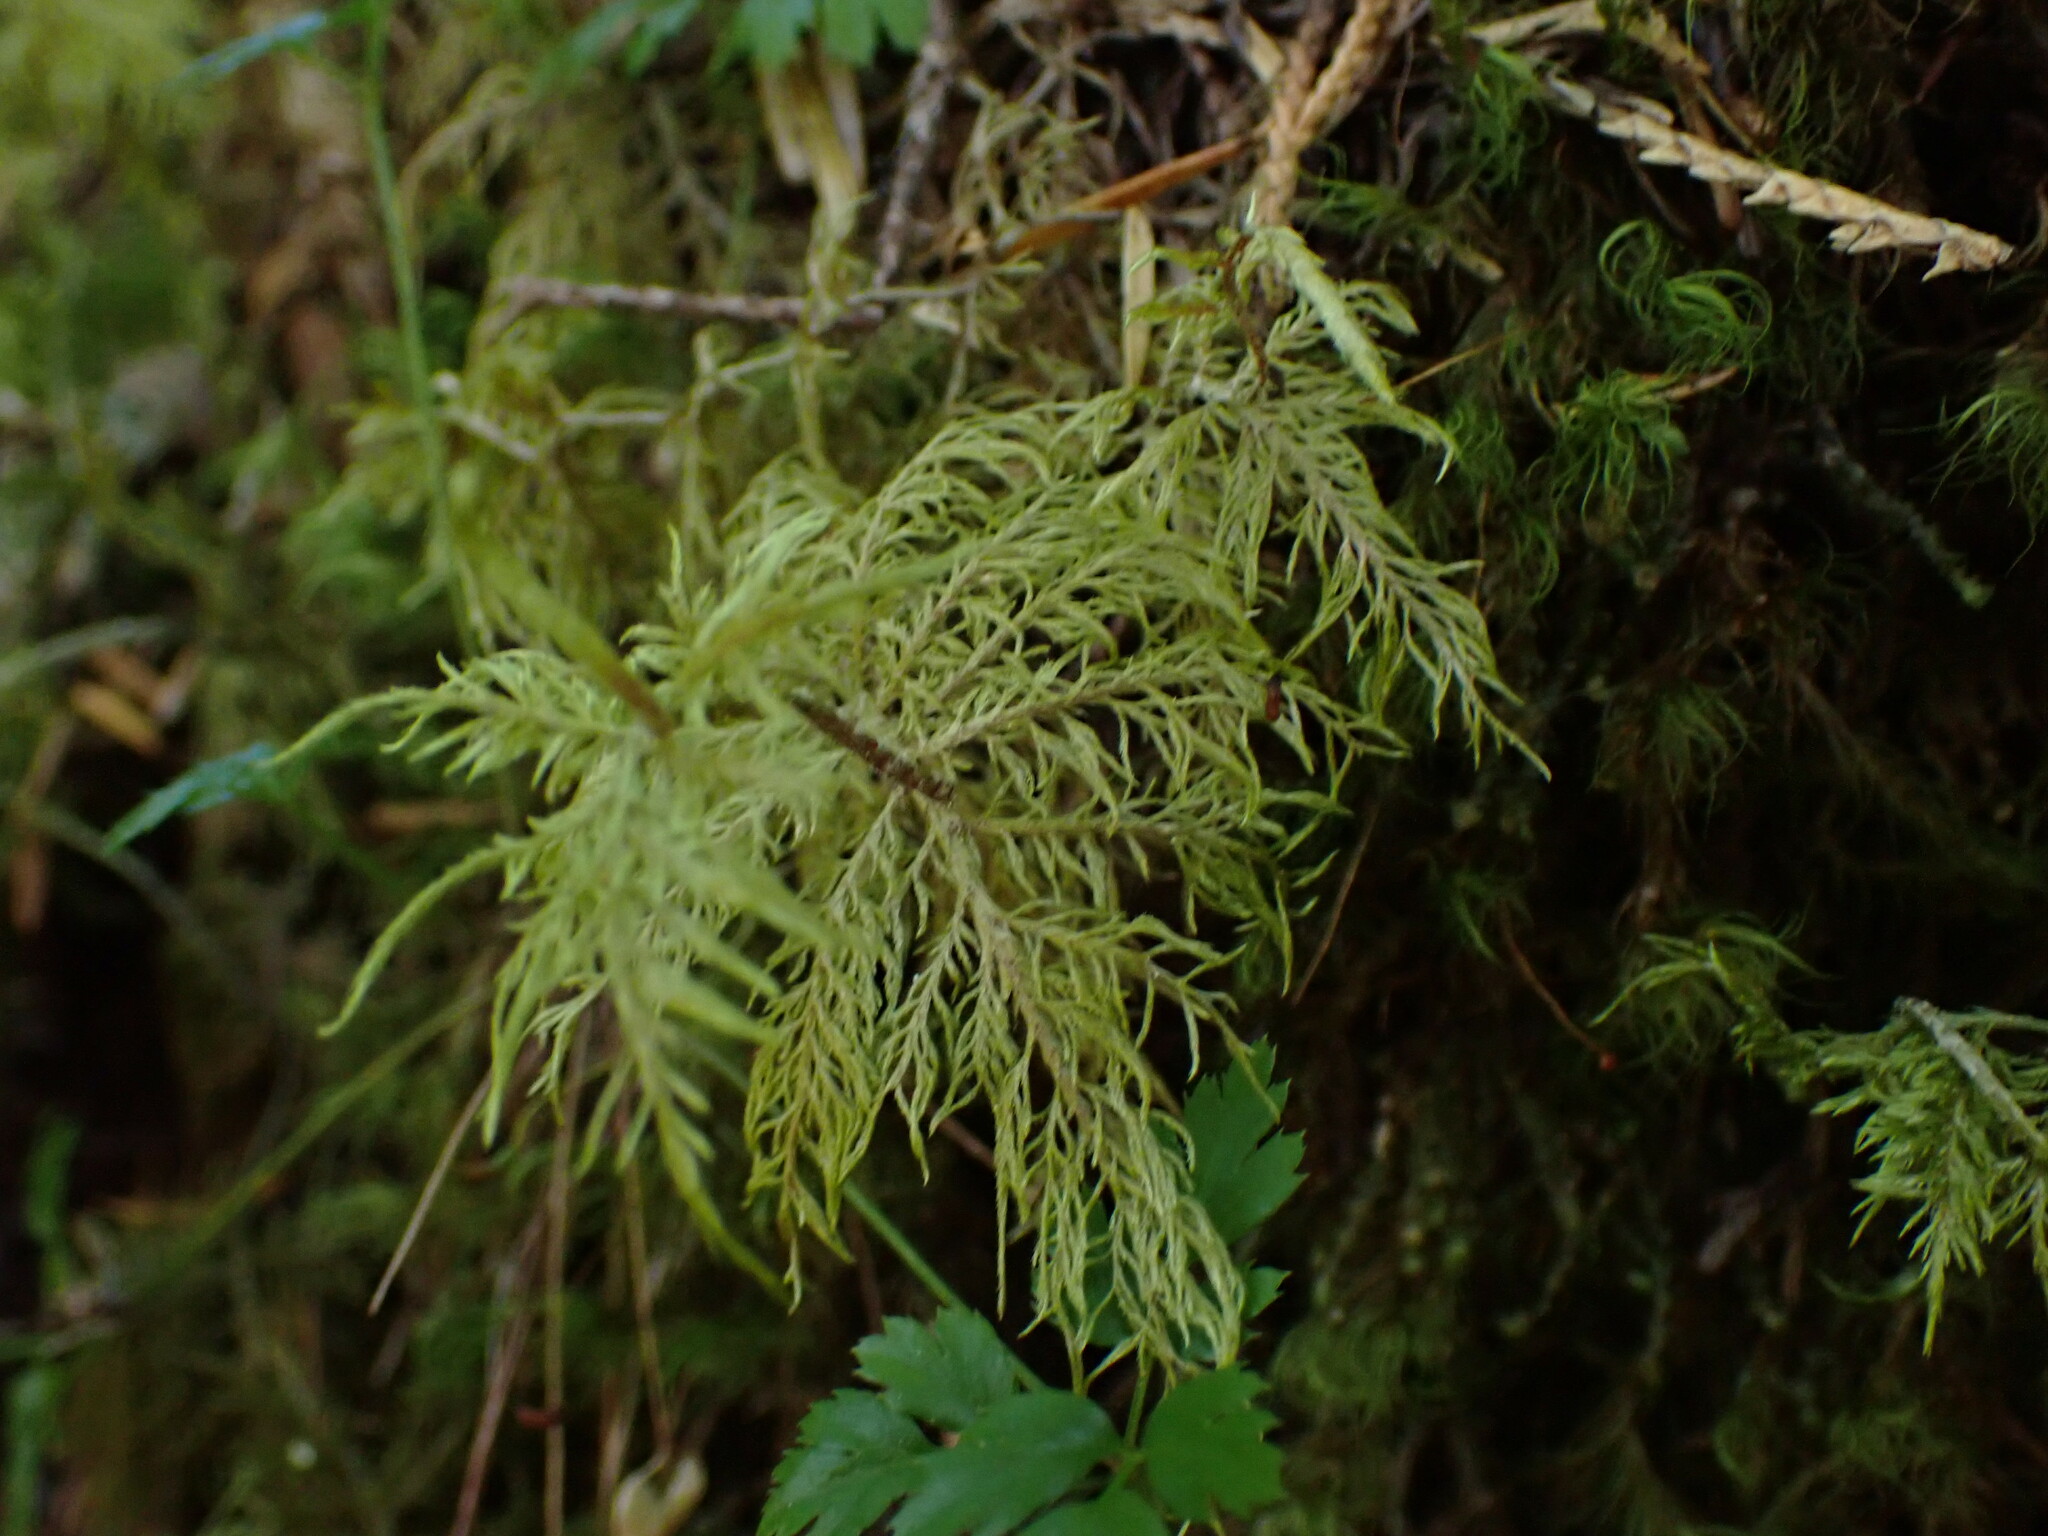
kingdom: Plantae
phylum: Bryophyta
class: Bryopsida
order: Hypnales
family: Hylocomiaceae
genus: Hylocomium
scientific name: Hylocomium splendens
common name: Stairstep moss
